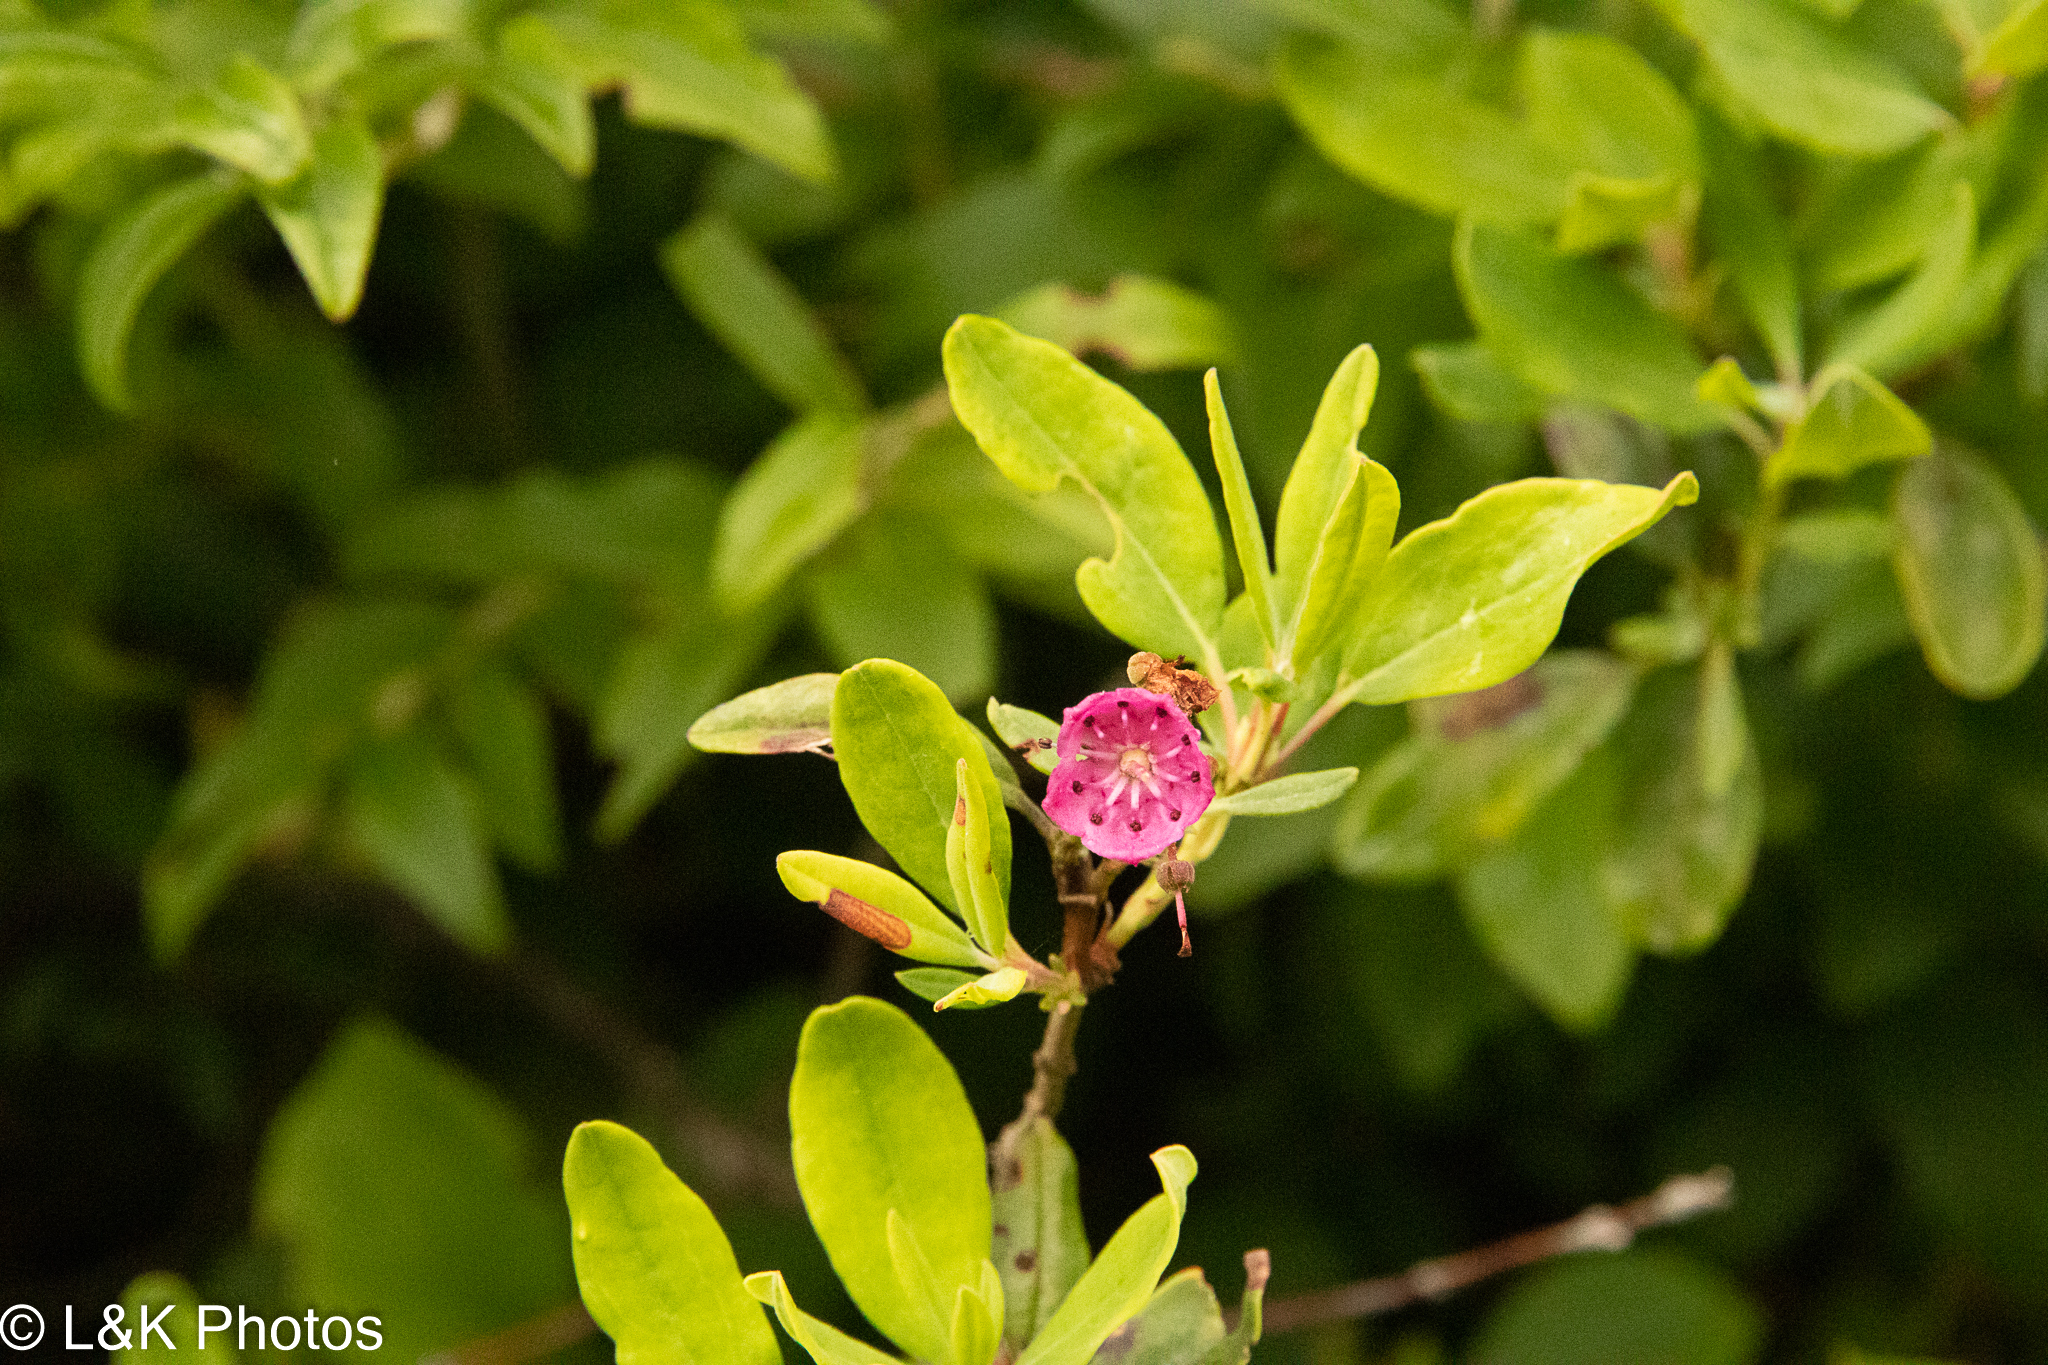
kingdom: Plantae
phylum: Tracheophyta
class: Magnoliopsida
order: Ericales
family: Ericaceae
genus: Kalmia
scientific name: Kalmia angustifolia
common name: Sheep-laurel
